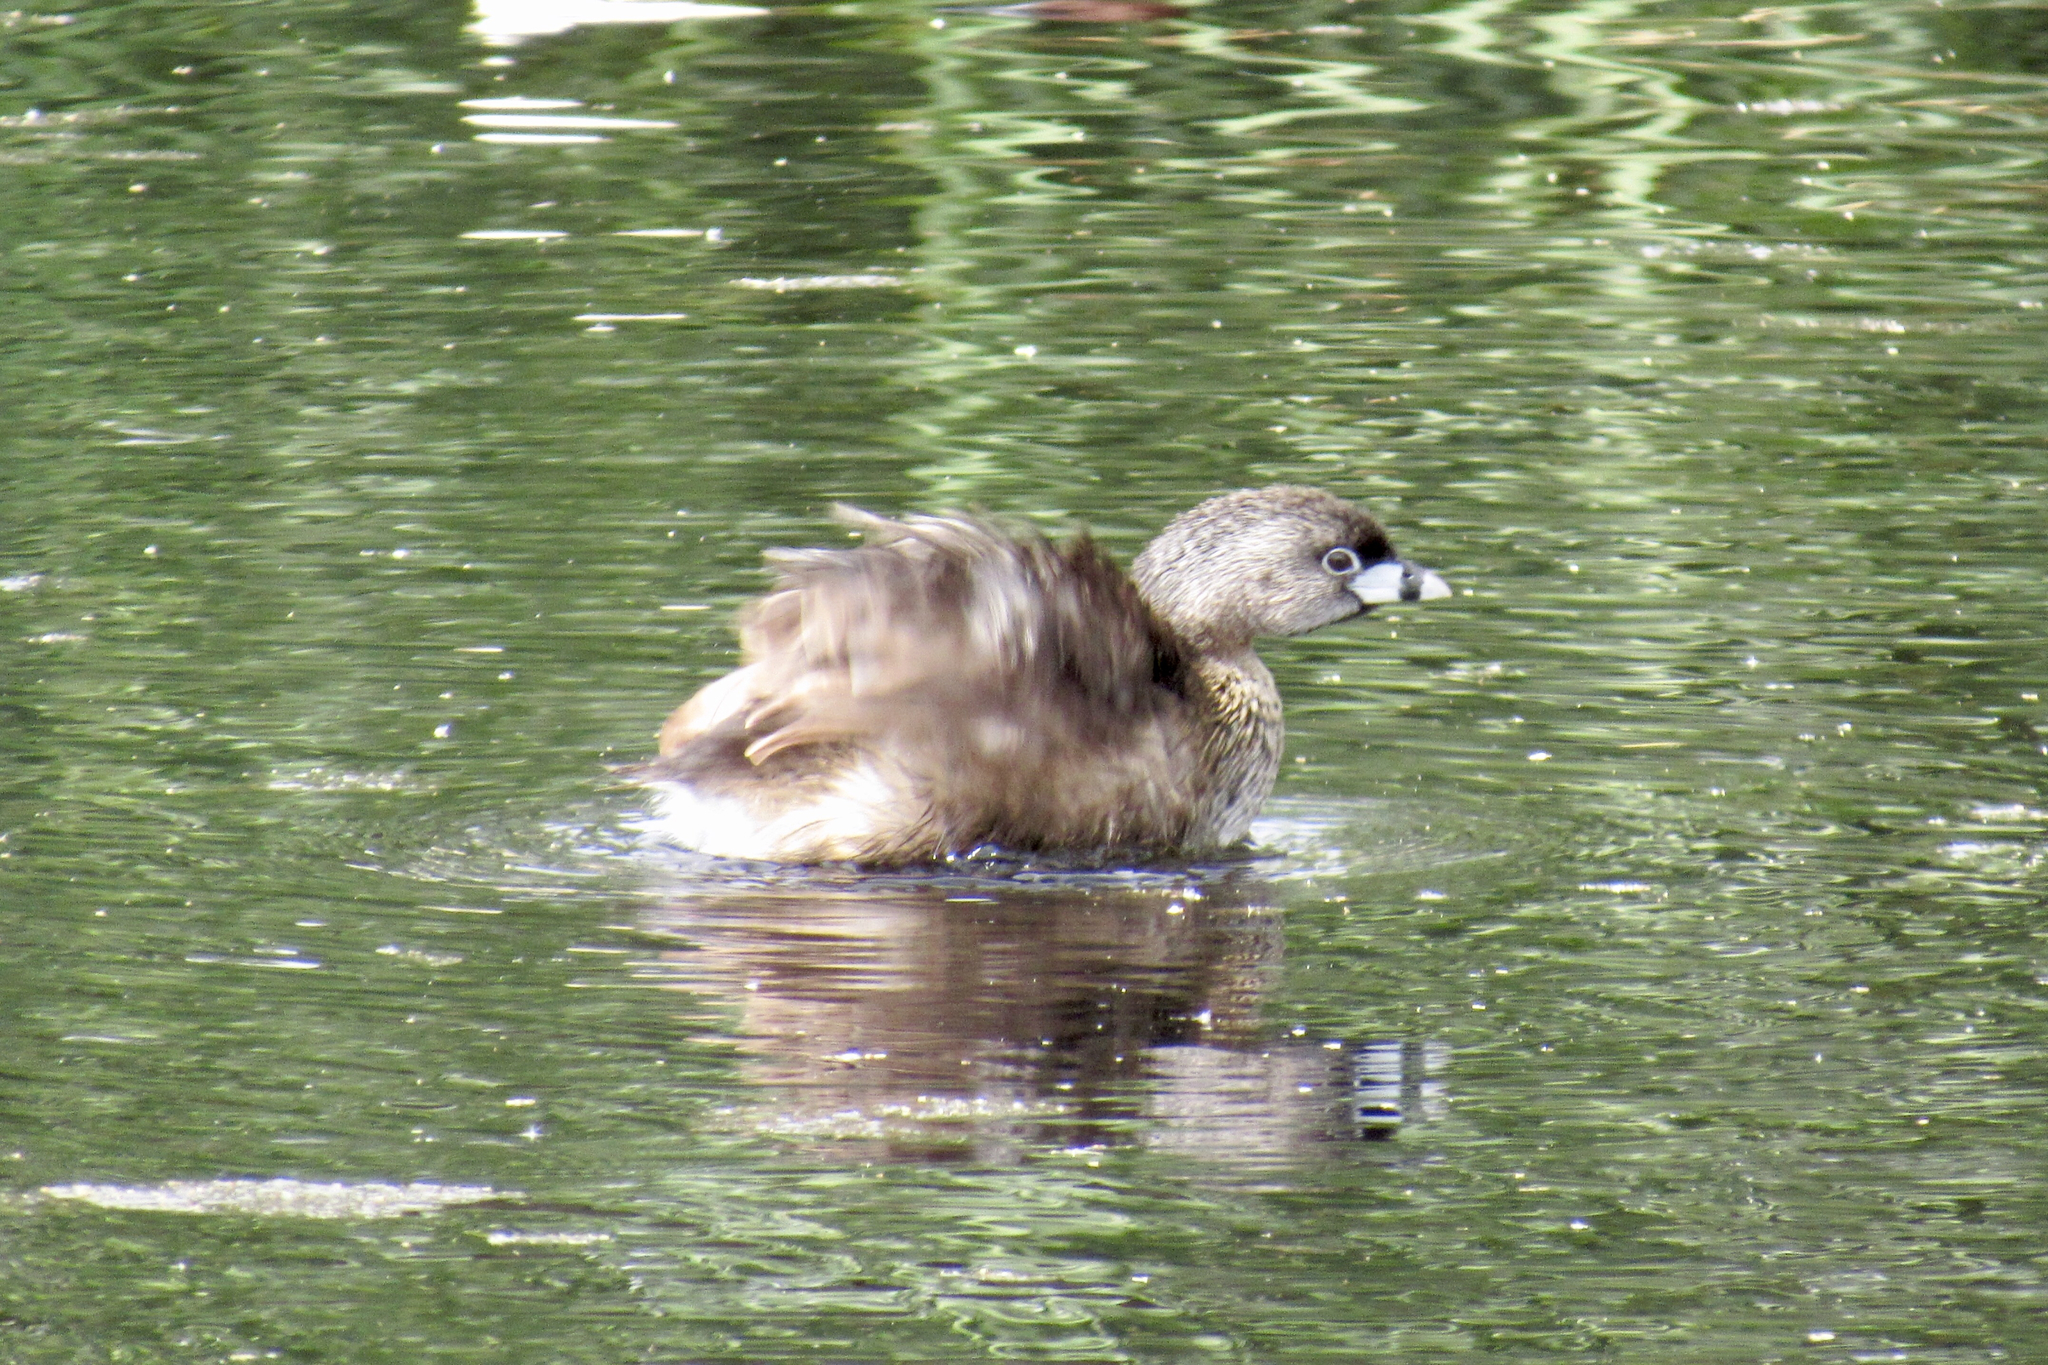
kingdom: Animalia
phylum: Chordata
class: Aves
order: Podicipediformes
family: Podicipedidae
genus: Podilymbus
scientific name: Podilymbus podiceps
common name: Pied-billed grebe
